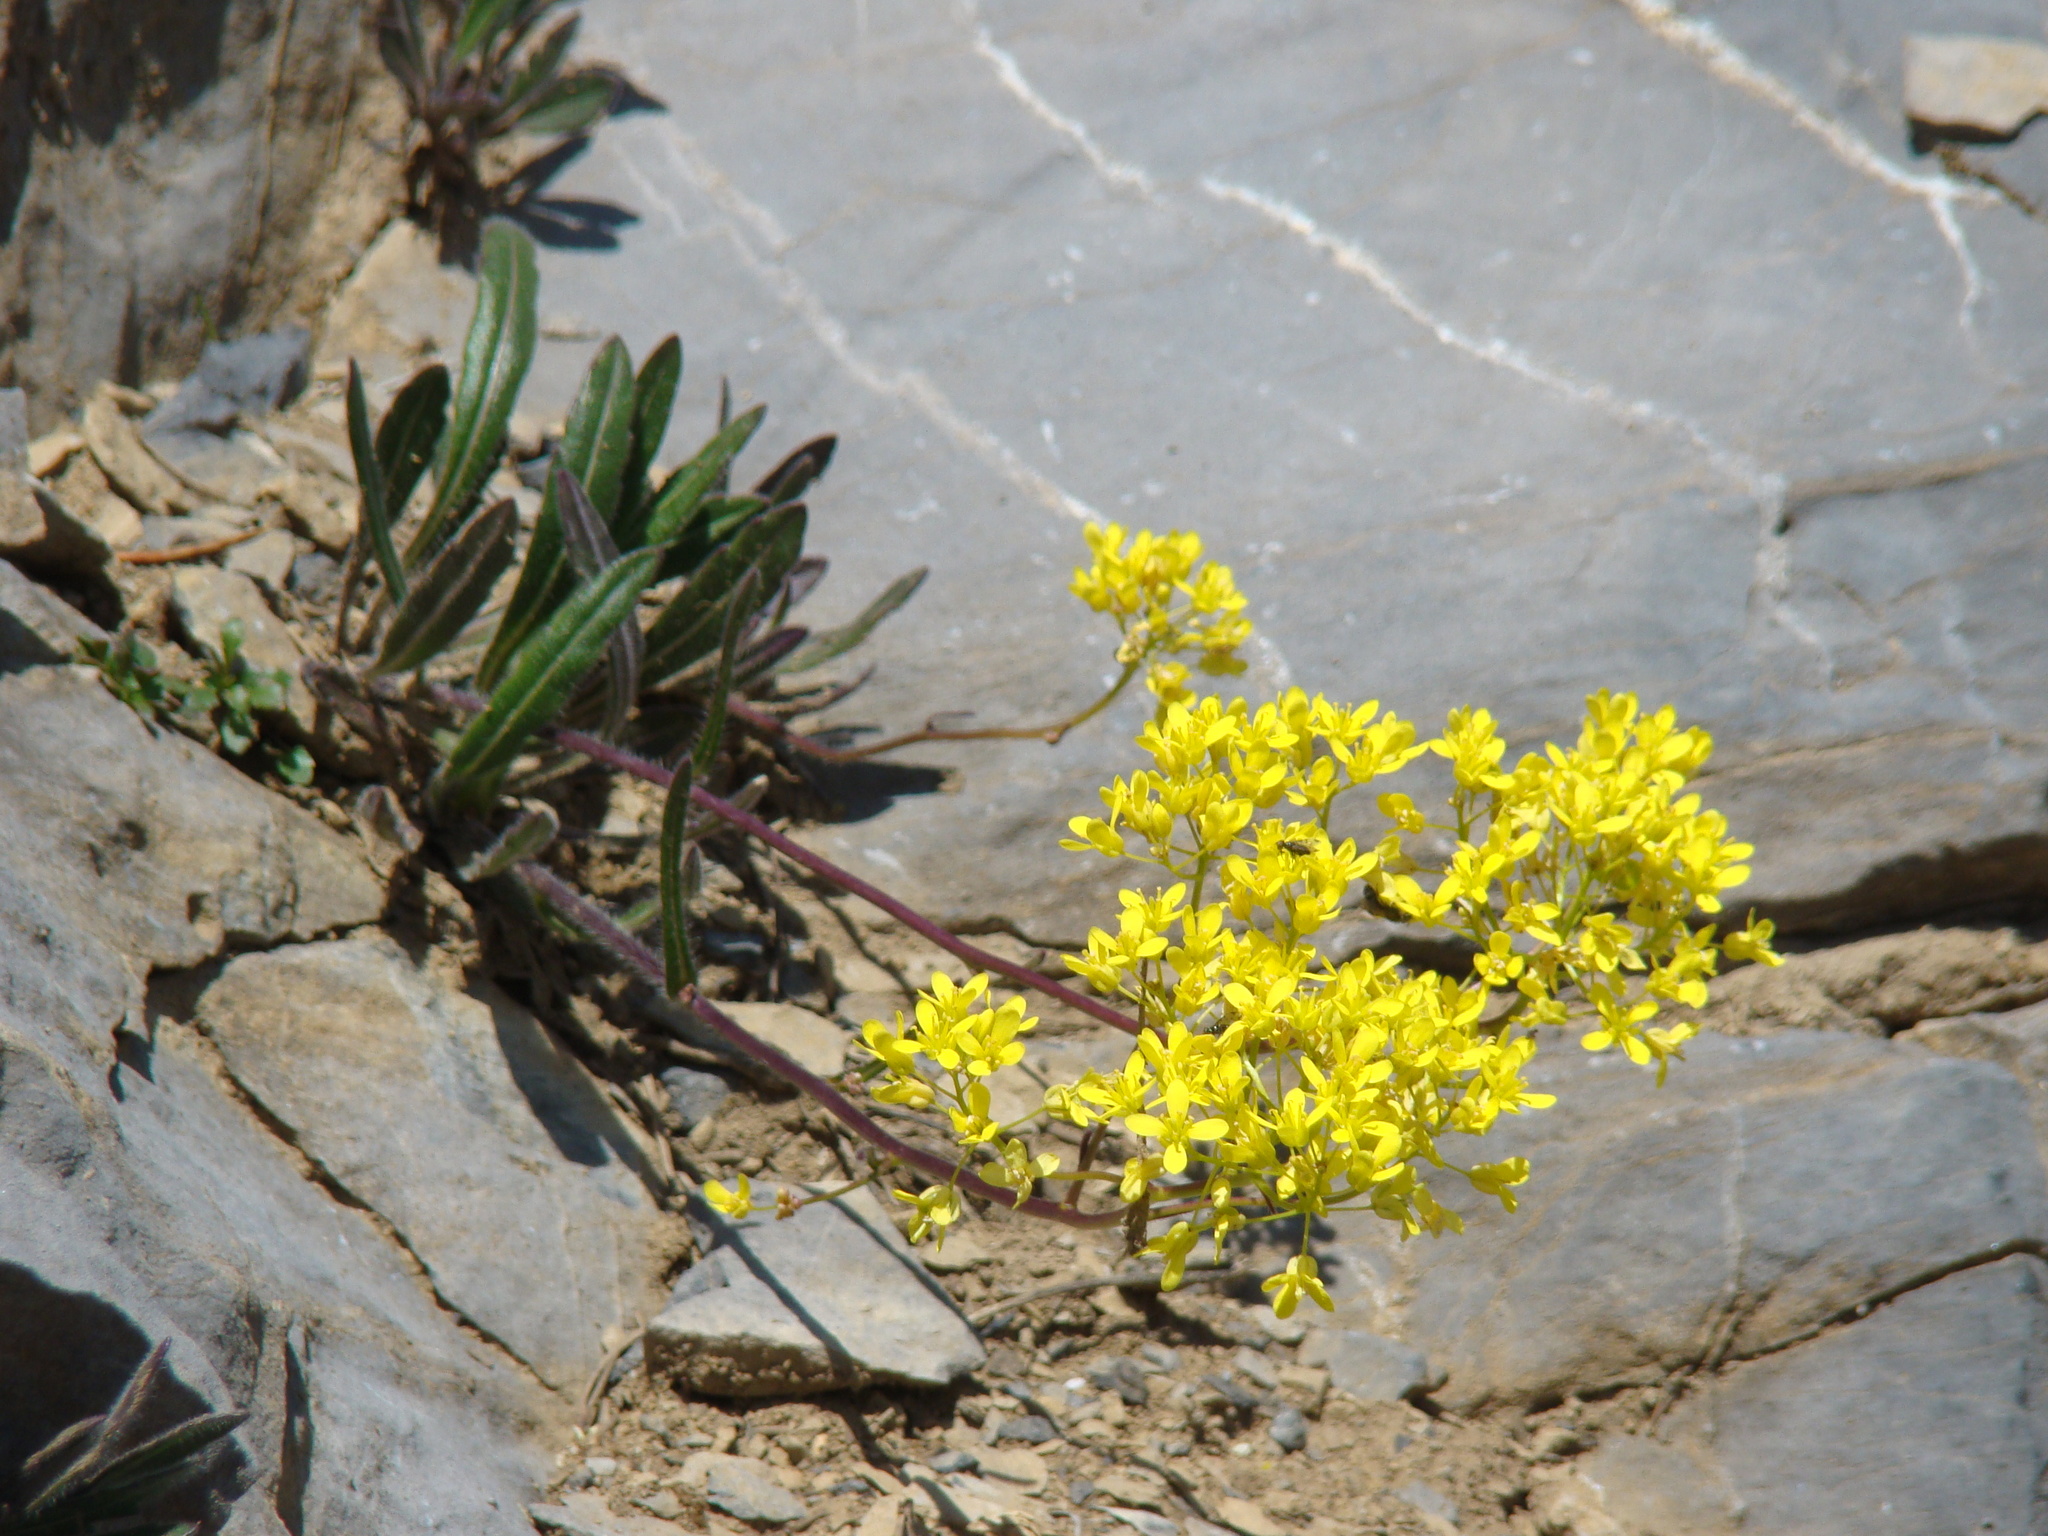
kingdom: Plantae
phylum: Tracheophyta
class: Magnoliopsida
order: Brassicales
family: Brassicaceae
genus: Biscutella
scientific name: Biscutella laevigata
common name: Buckler mustard
